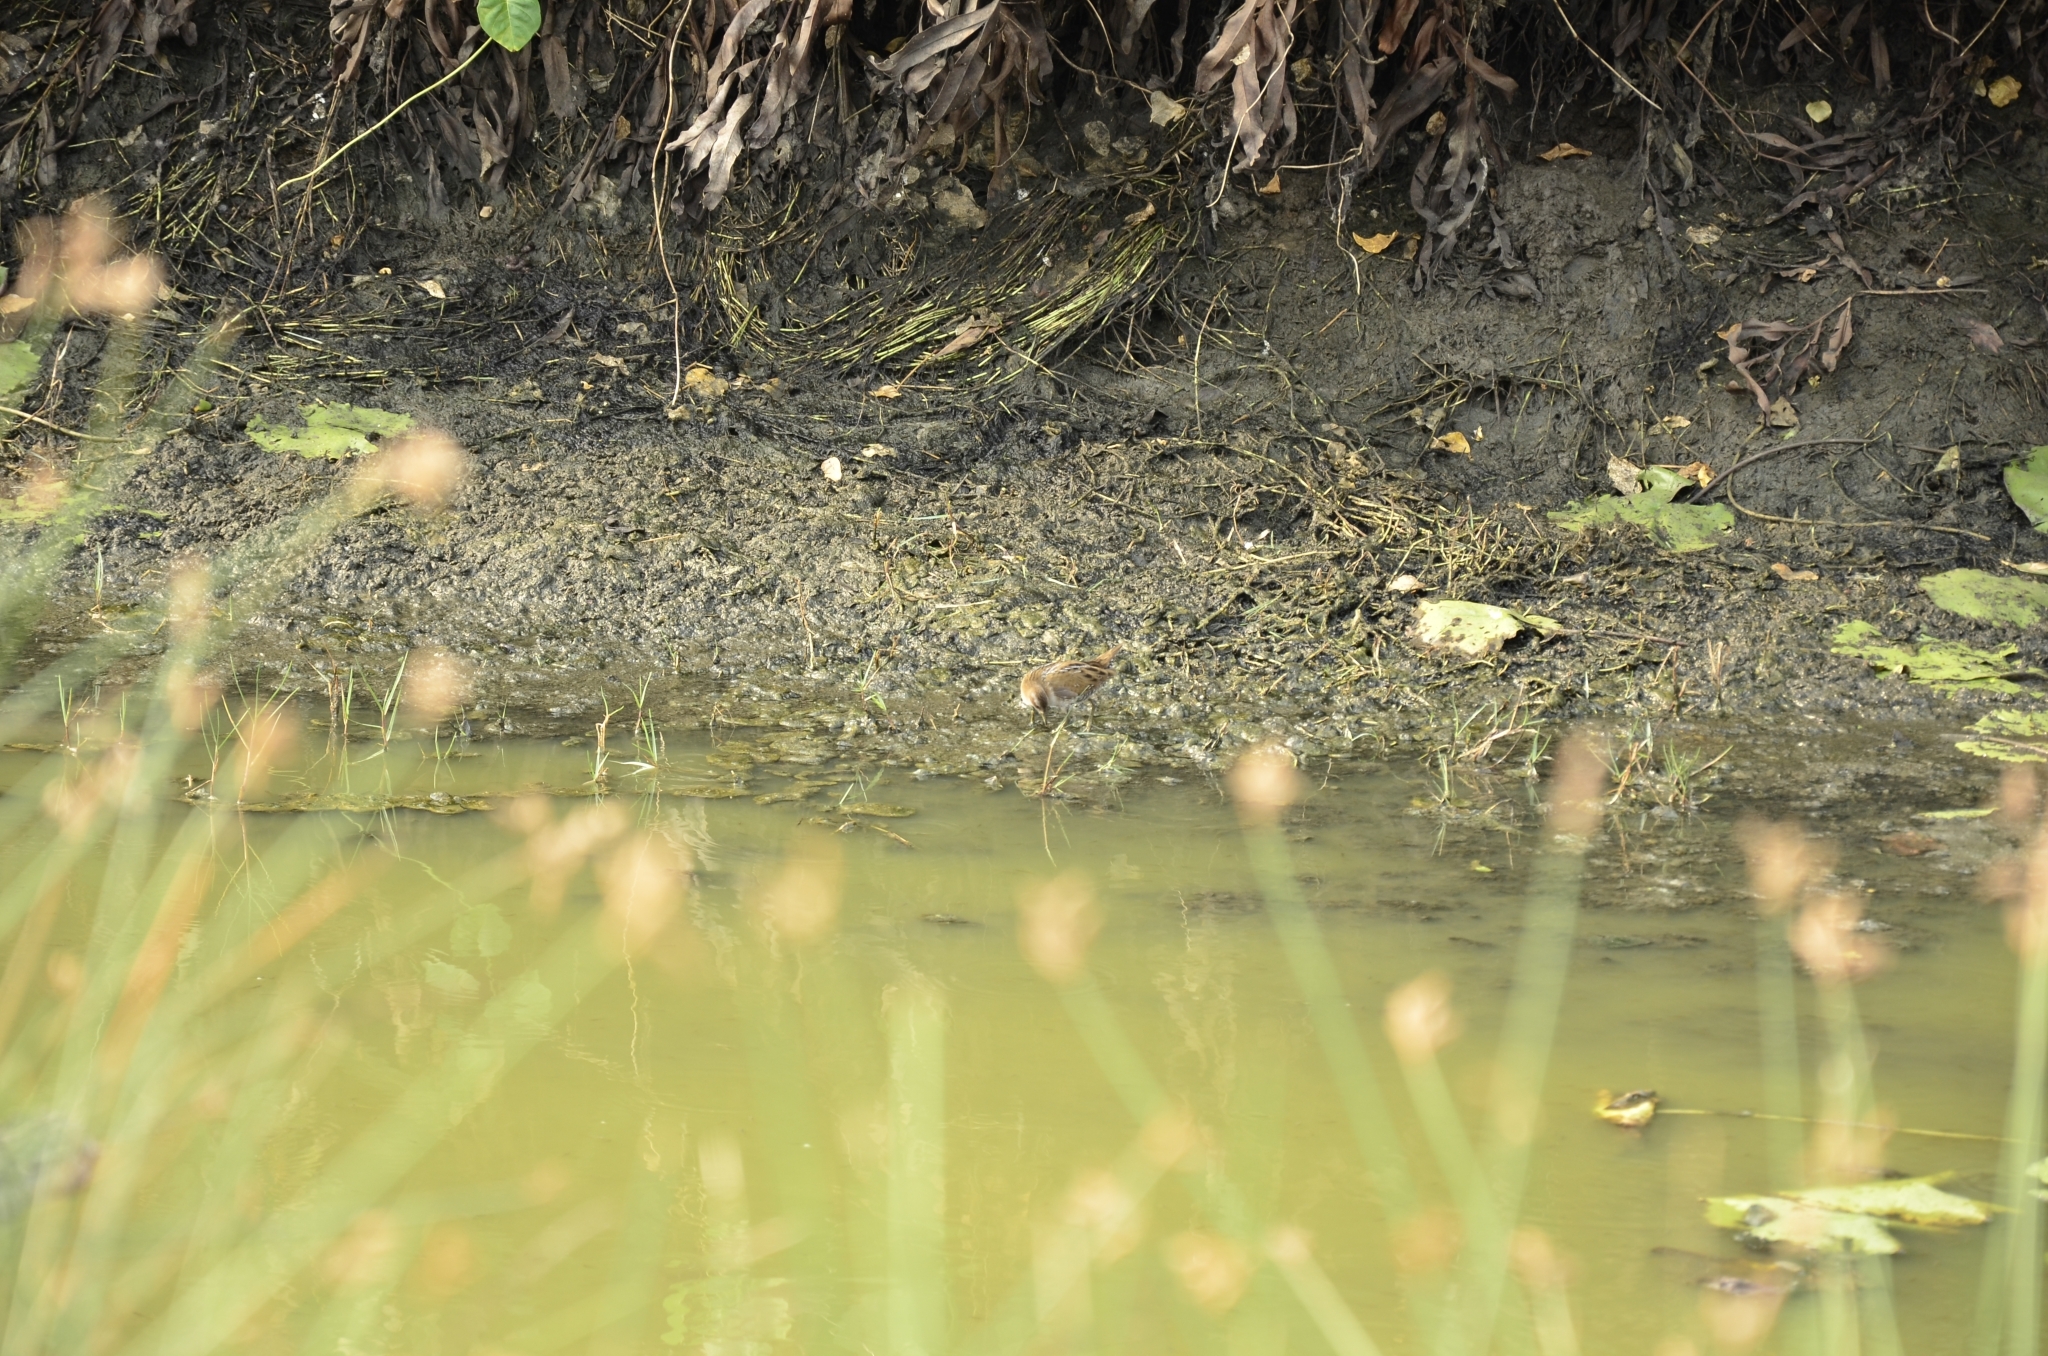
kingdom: Animalia
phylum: Chordata
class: Aves
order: Gruiformes
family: Rallidae
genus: Porzana
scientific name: Porzana pusilla
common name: Baillon's crake
